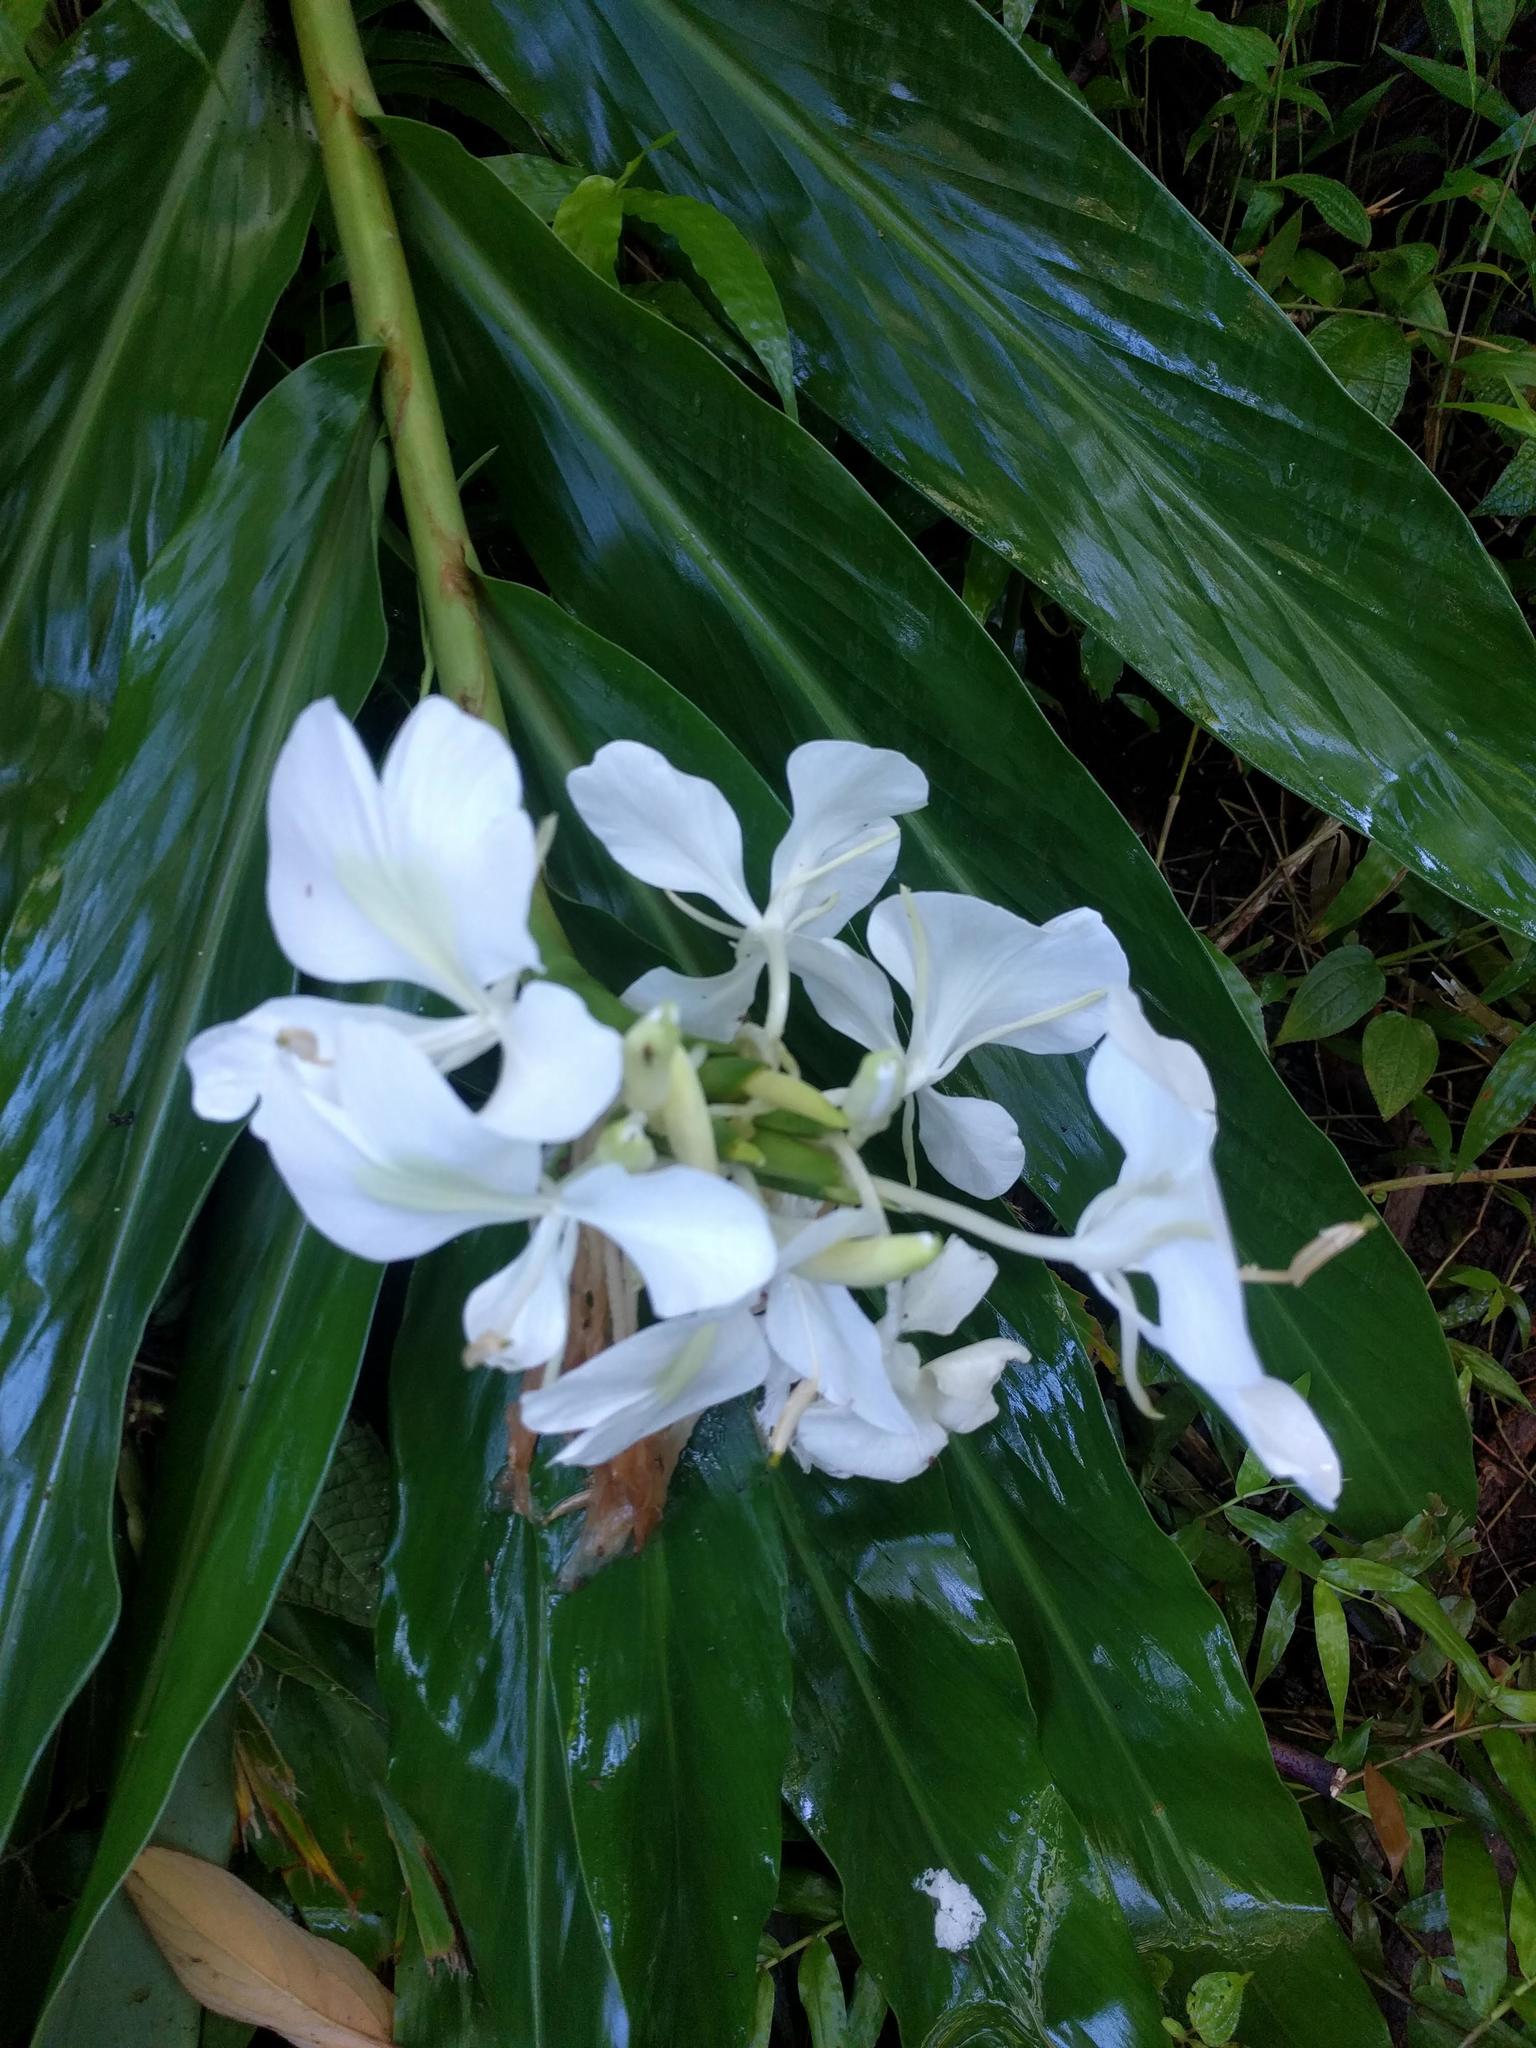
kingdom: Plantae
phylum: Tracheophyta
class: Liliopsida
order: Zingiberales
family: Zingiberaceae
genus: Hedychium
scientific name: Hedychium coronarium
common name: White garland-lily
